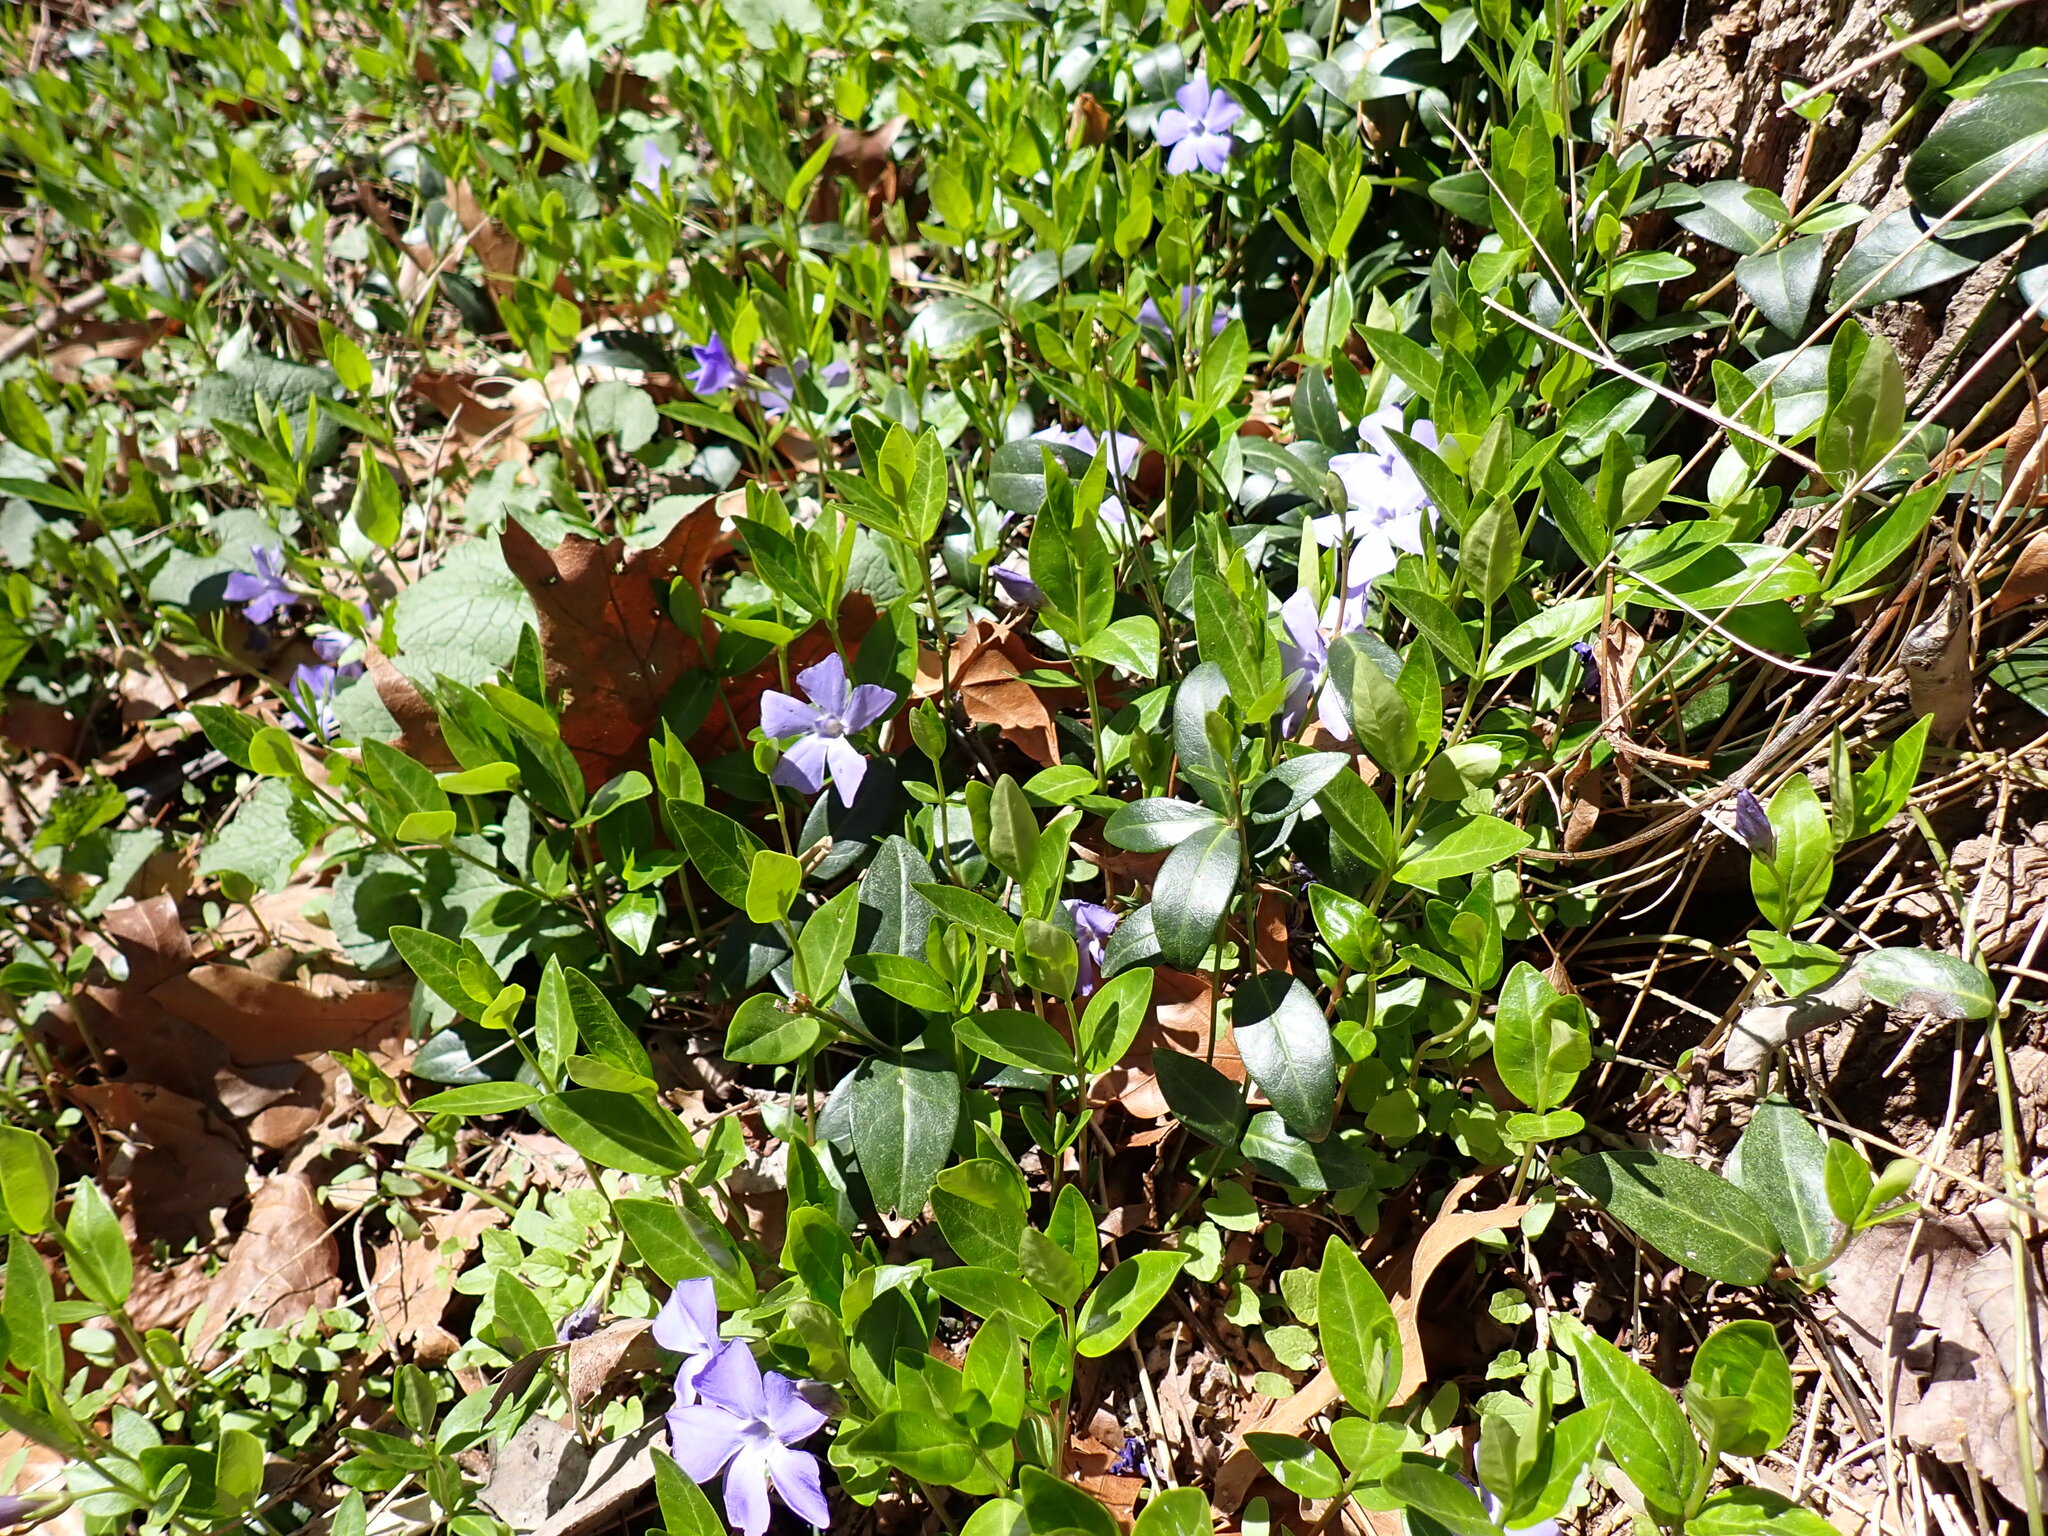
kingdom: Plantae
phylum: Tracheophyta
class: Magnoliopsida
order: Gentianales
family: Apocynaceae
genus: Vinca
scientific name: Vinca minor
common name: Lesser periwinkle
